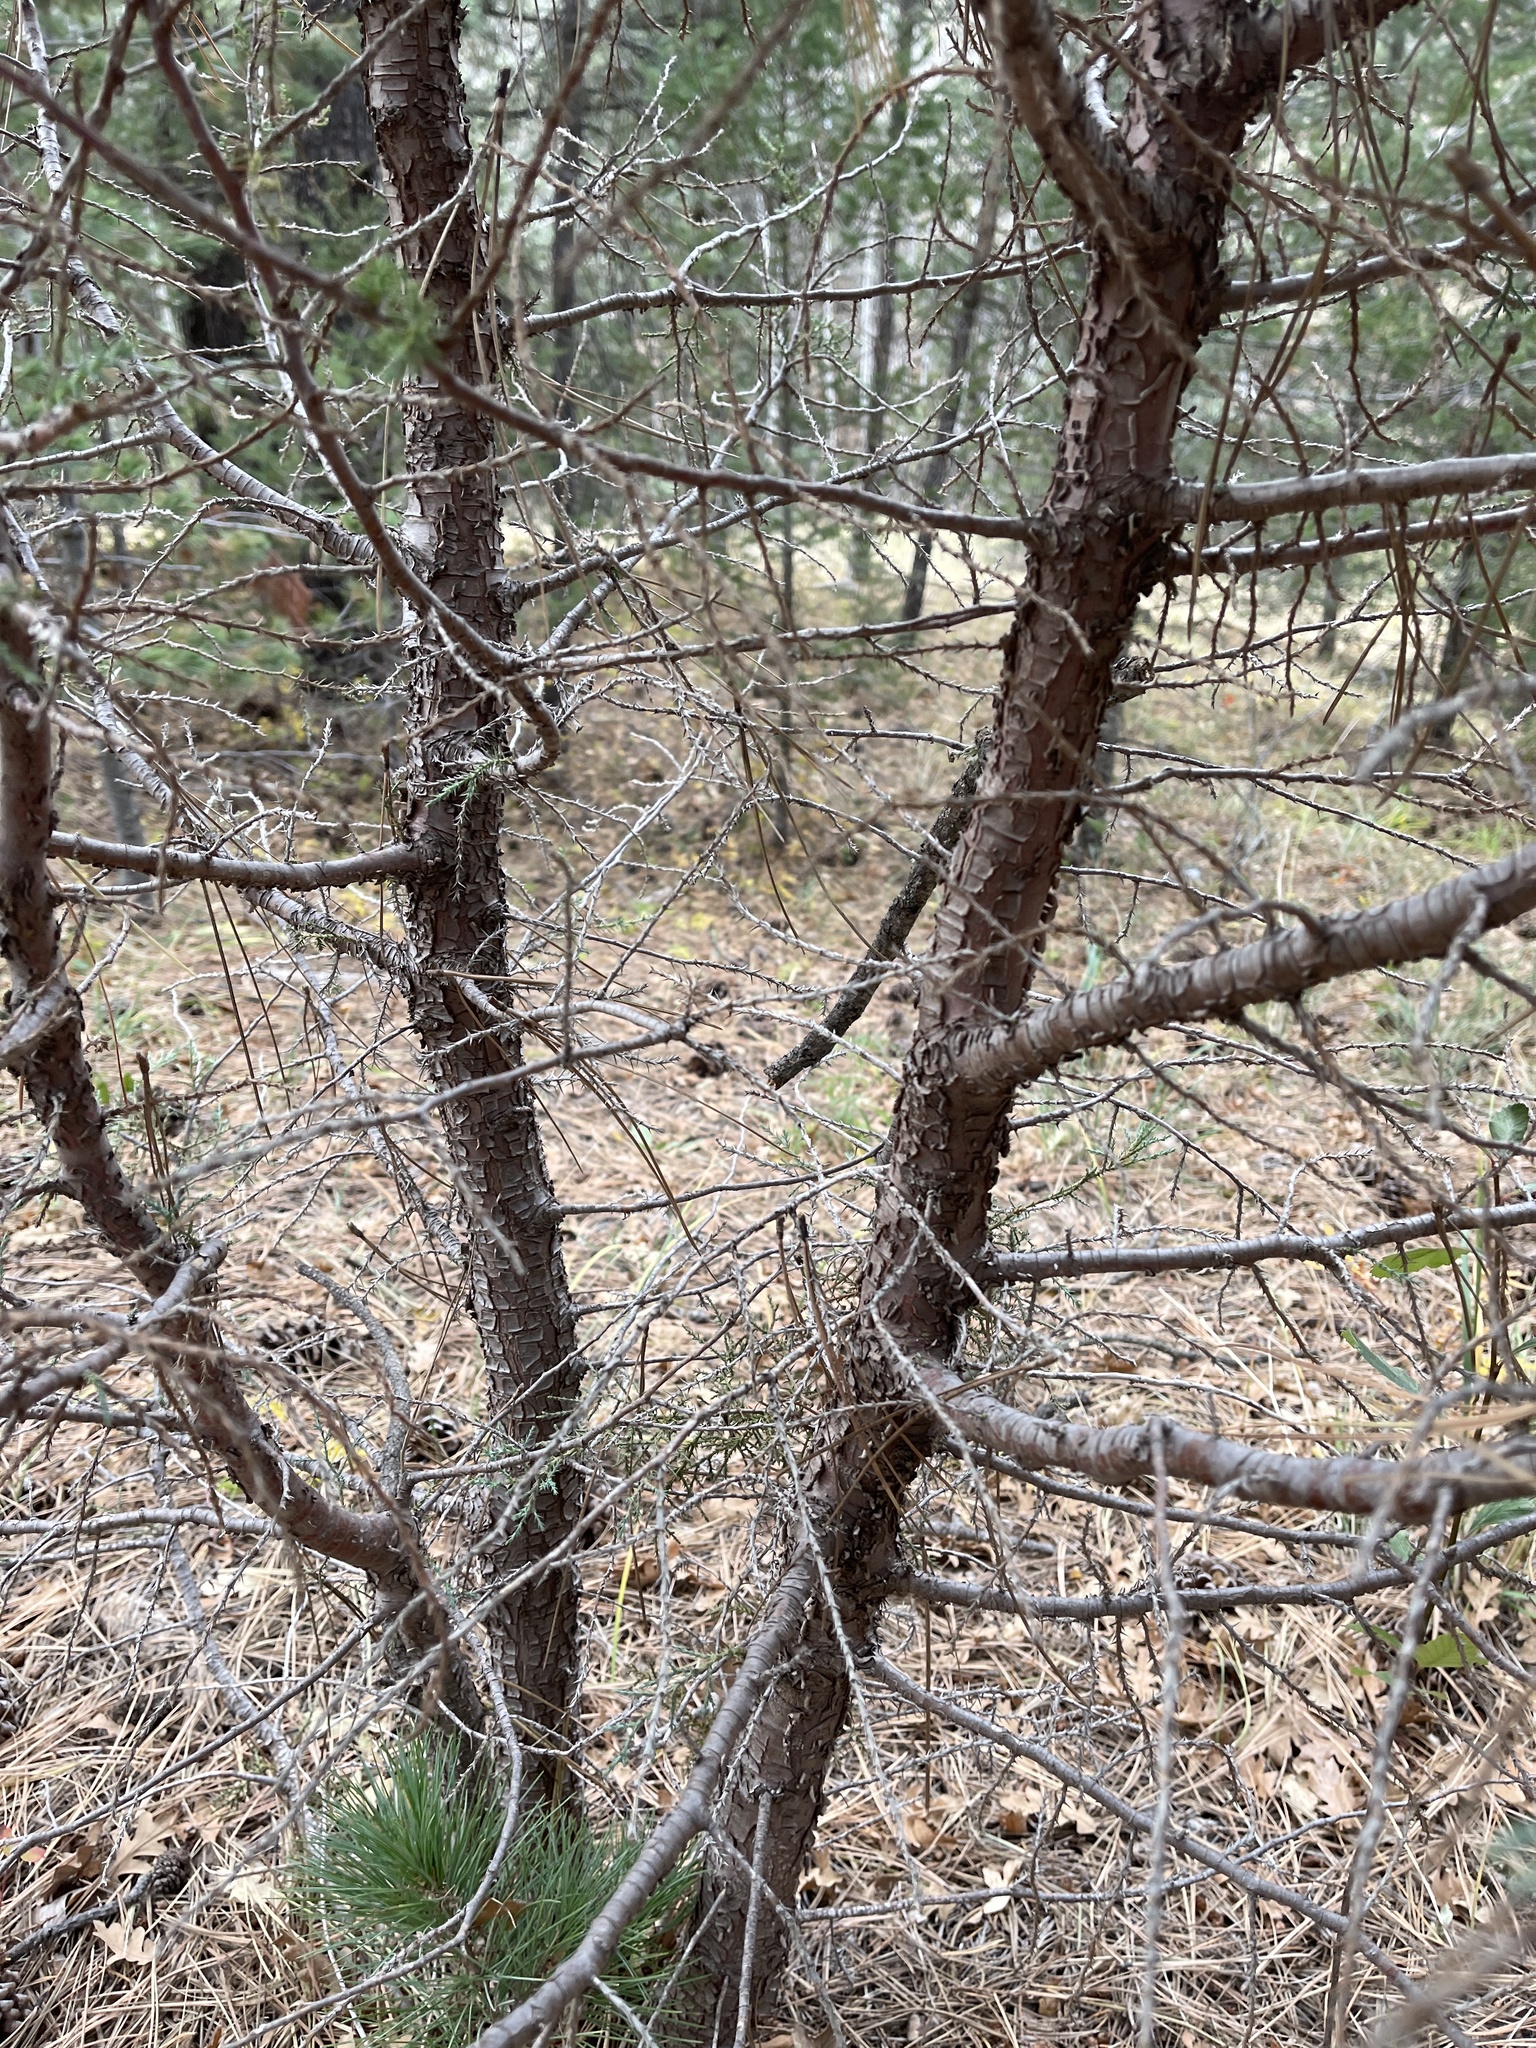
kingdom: Plantae
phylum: Tracheophyta
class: Pinopsida
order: Pinales
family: Cupressaceae
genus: Juniperus
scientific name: Juniperus deppeana
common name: Alligator juniper
